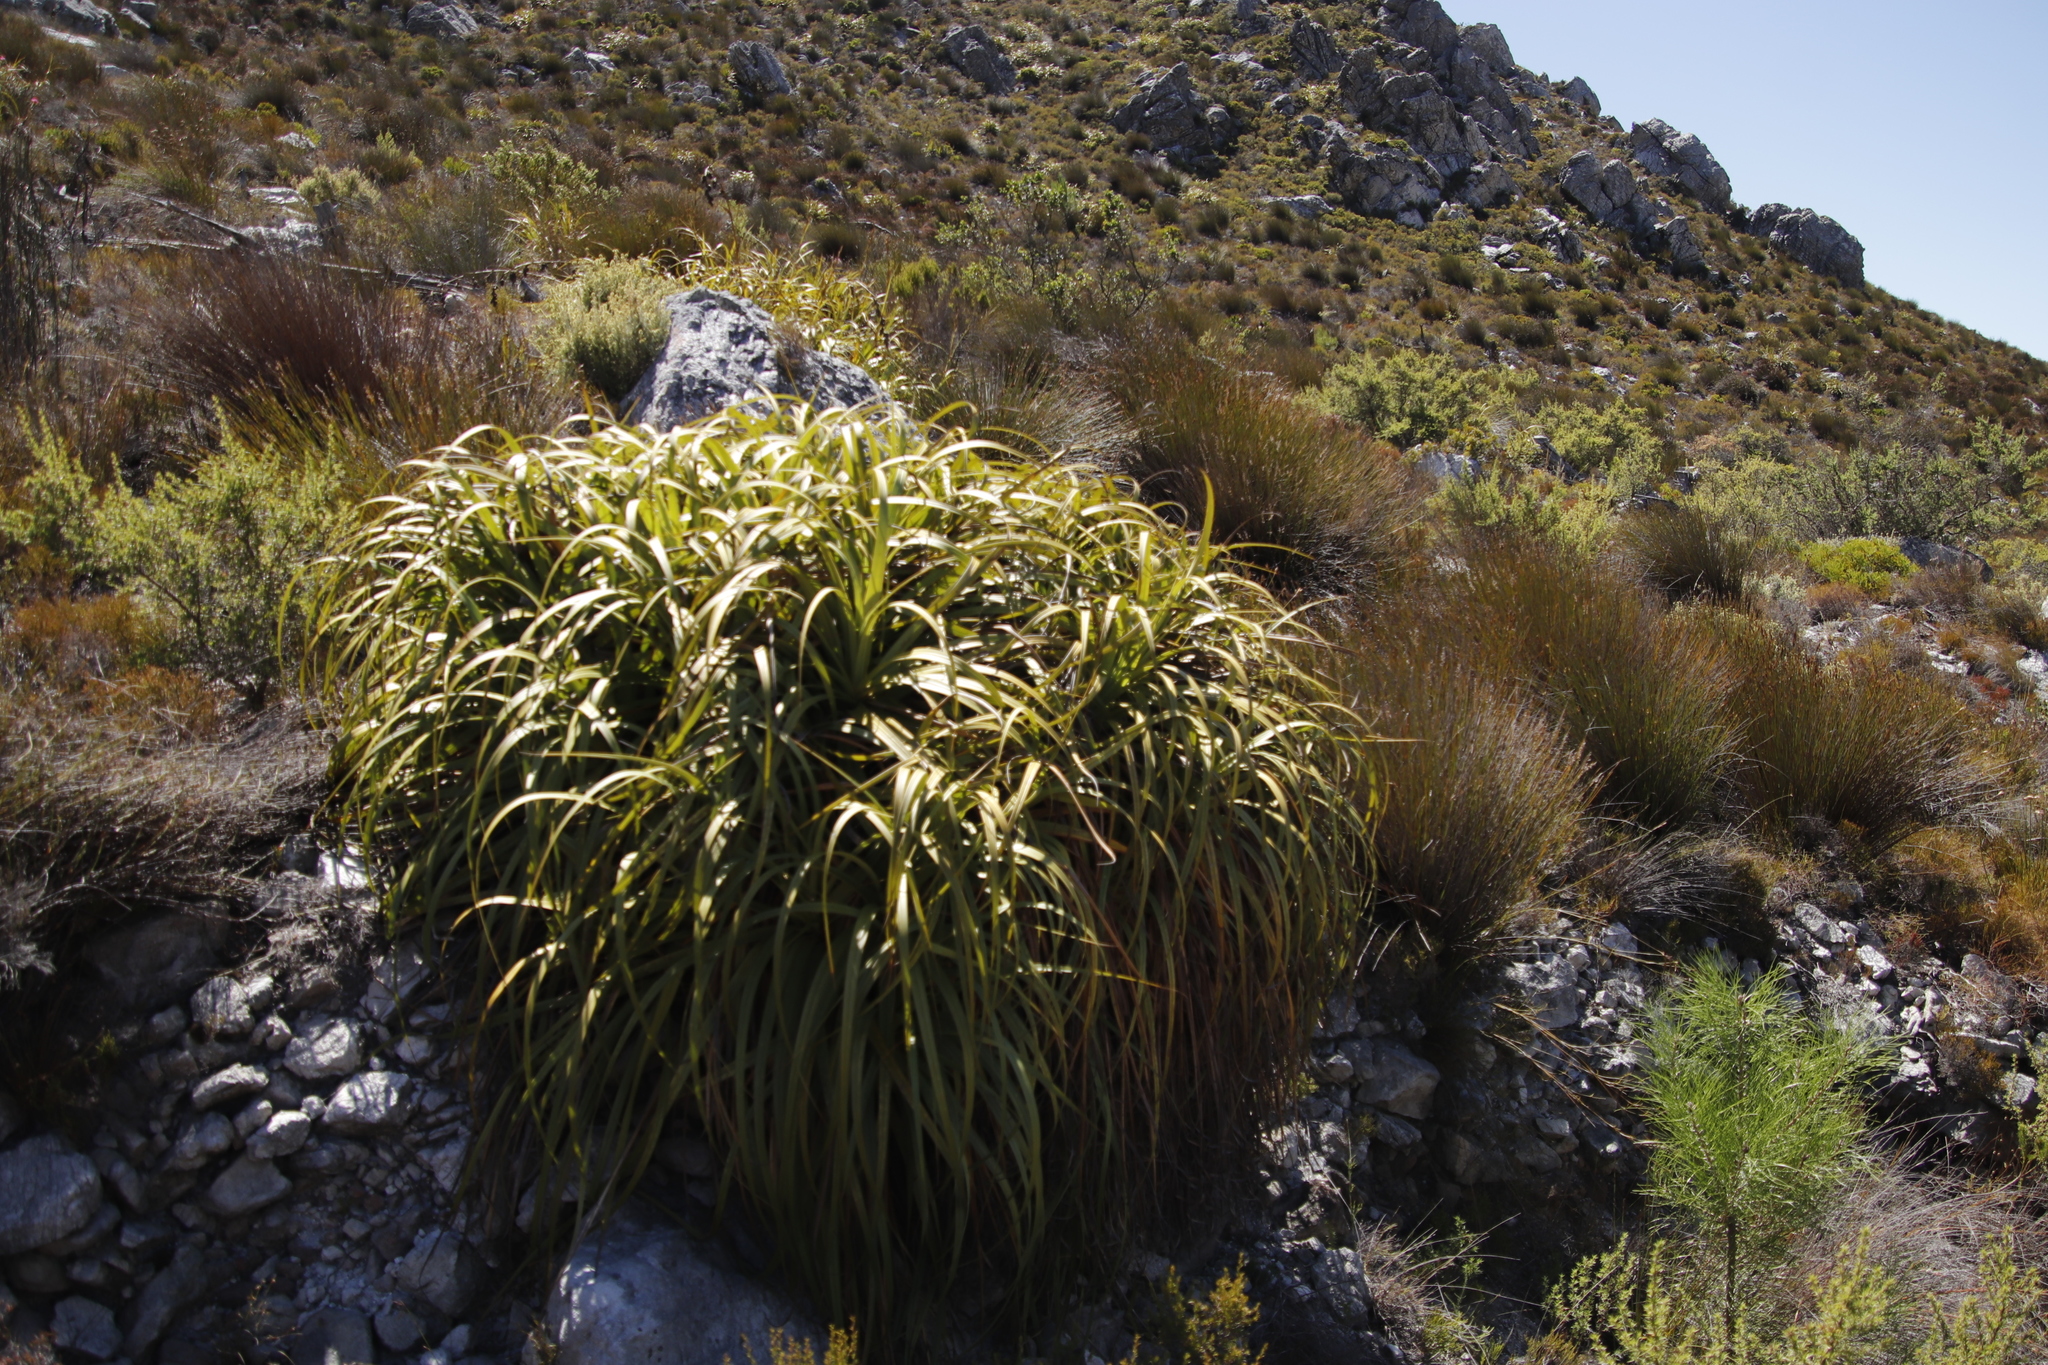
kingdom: Plantae
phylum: Tracheophyta
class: Liliopsida
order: Poales
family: Cyperaceae
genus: Tetraria
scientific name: Tetraria thermalis
